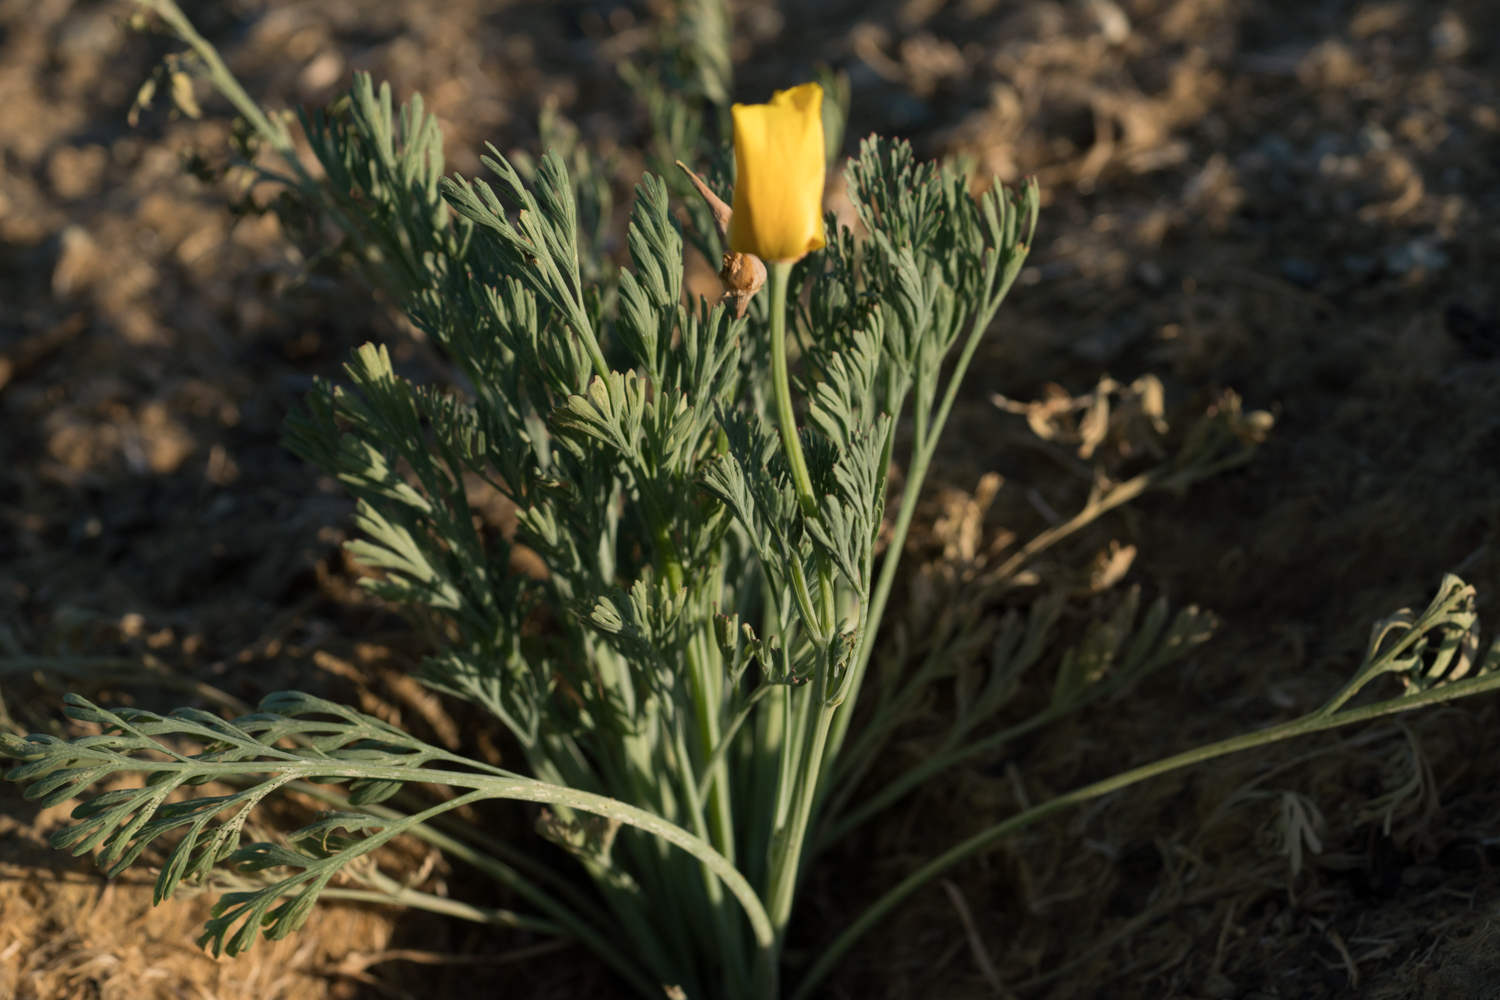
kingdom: Plantae
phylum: Tracheophyta
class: Magnoliopsida
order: Ranunculales
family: Papaveraceae
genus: Eschscholzia
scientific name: Eschscholzia californica
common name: California poppy
